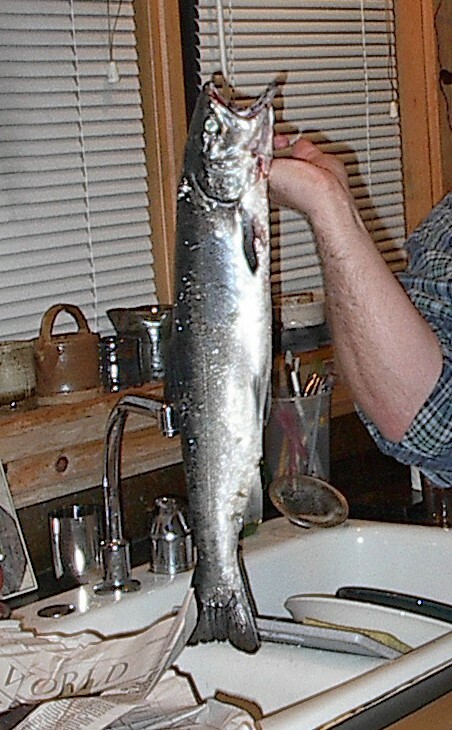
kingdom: Animalia
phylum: Chordata
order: Salmoniformes
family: Salmonidae
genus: Oncorhynchus
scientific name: Oncorhynchus kisutch
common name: Coho salmon
